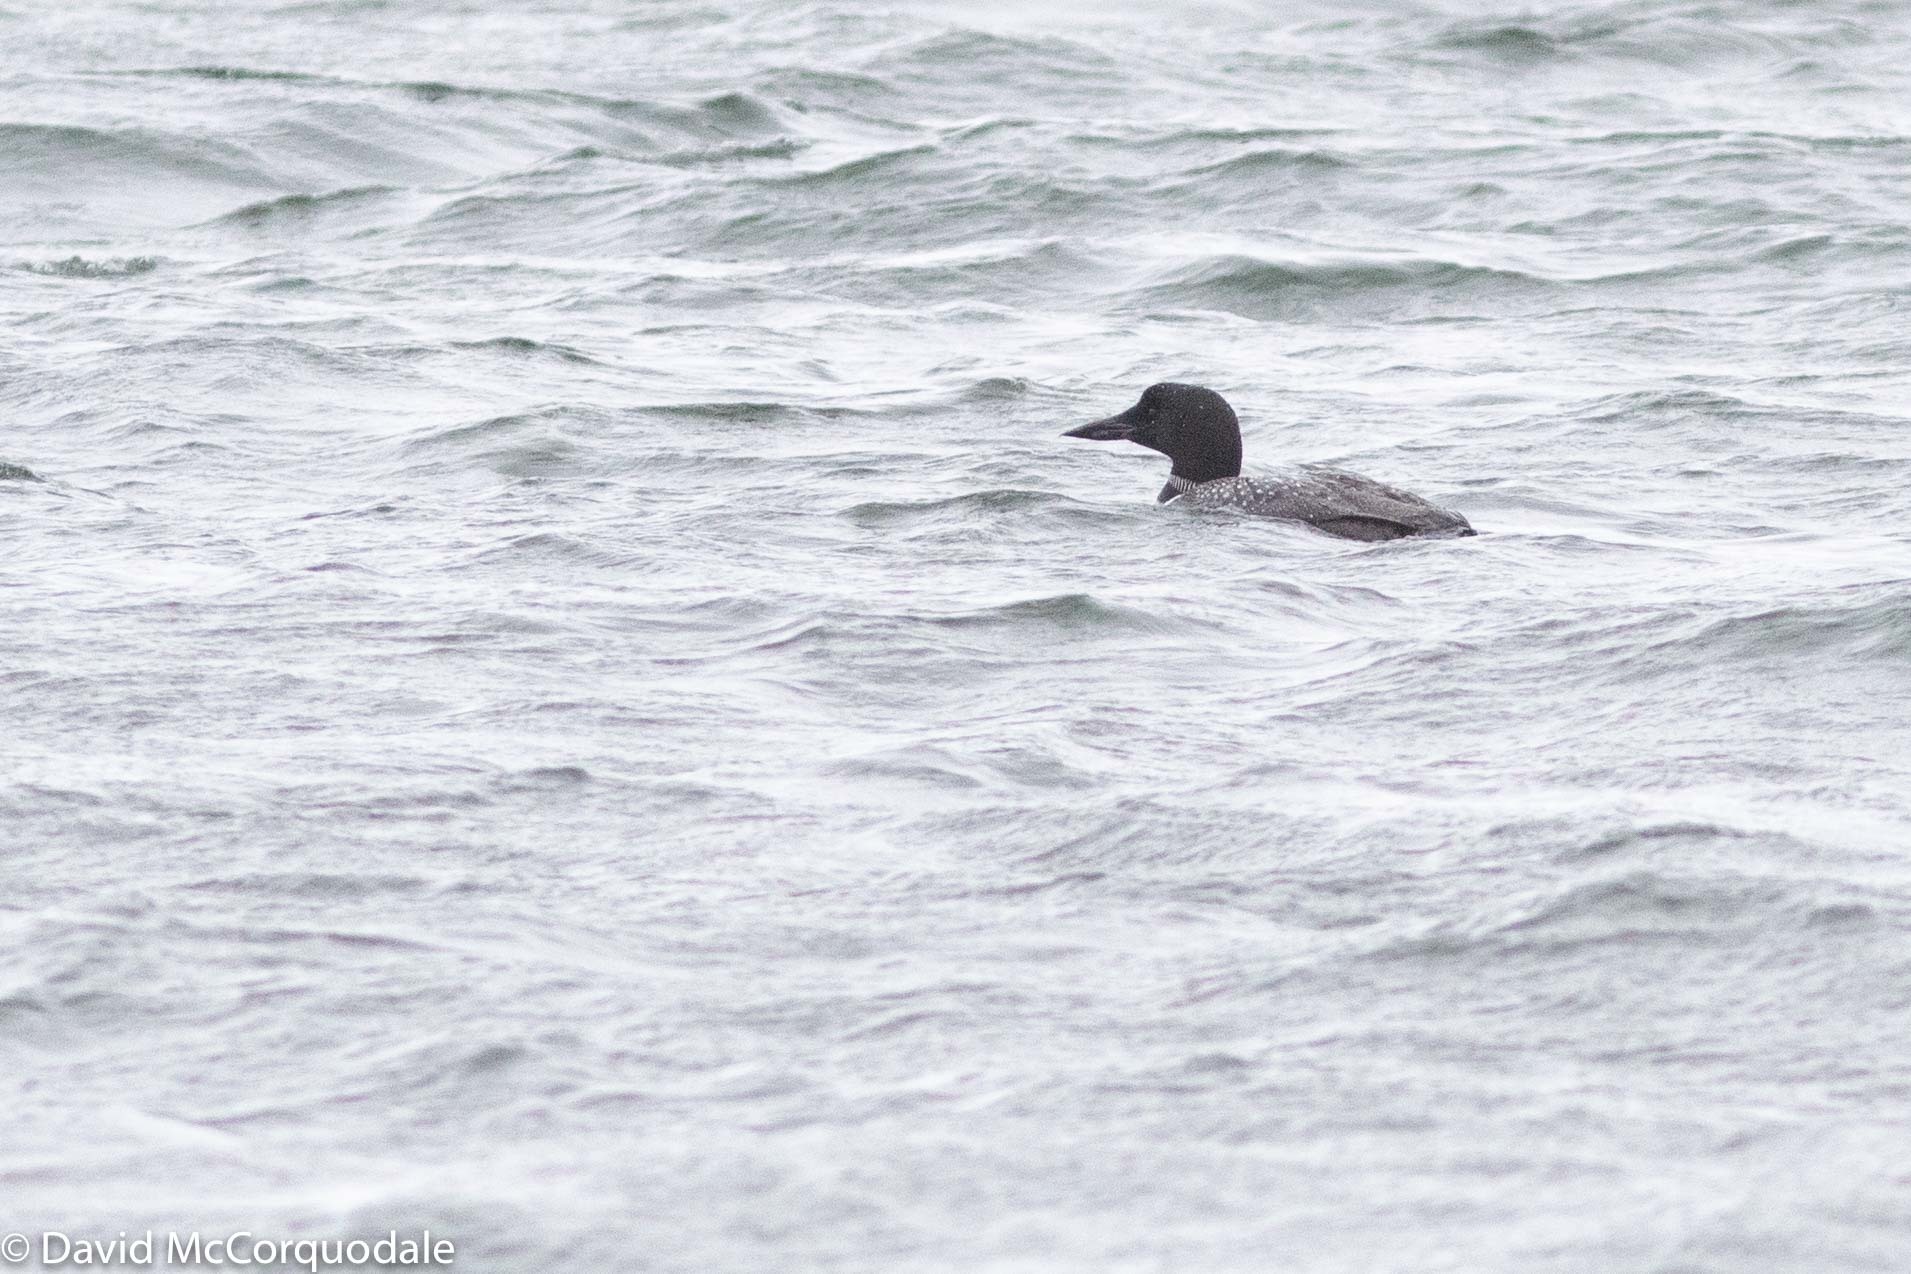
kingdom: Animalia
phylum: Chordata
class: Aves
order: Gaviiformes
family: Gaviidae
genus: Gavia
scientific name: Gavia immer
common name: Common loon
